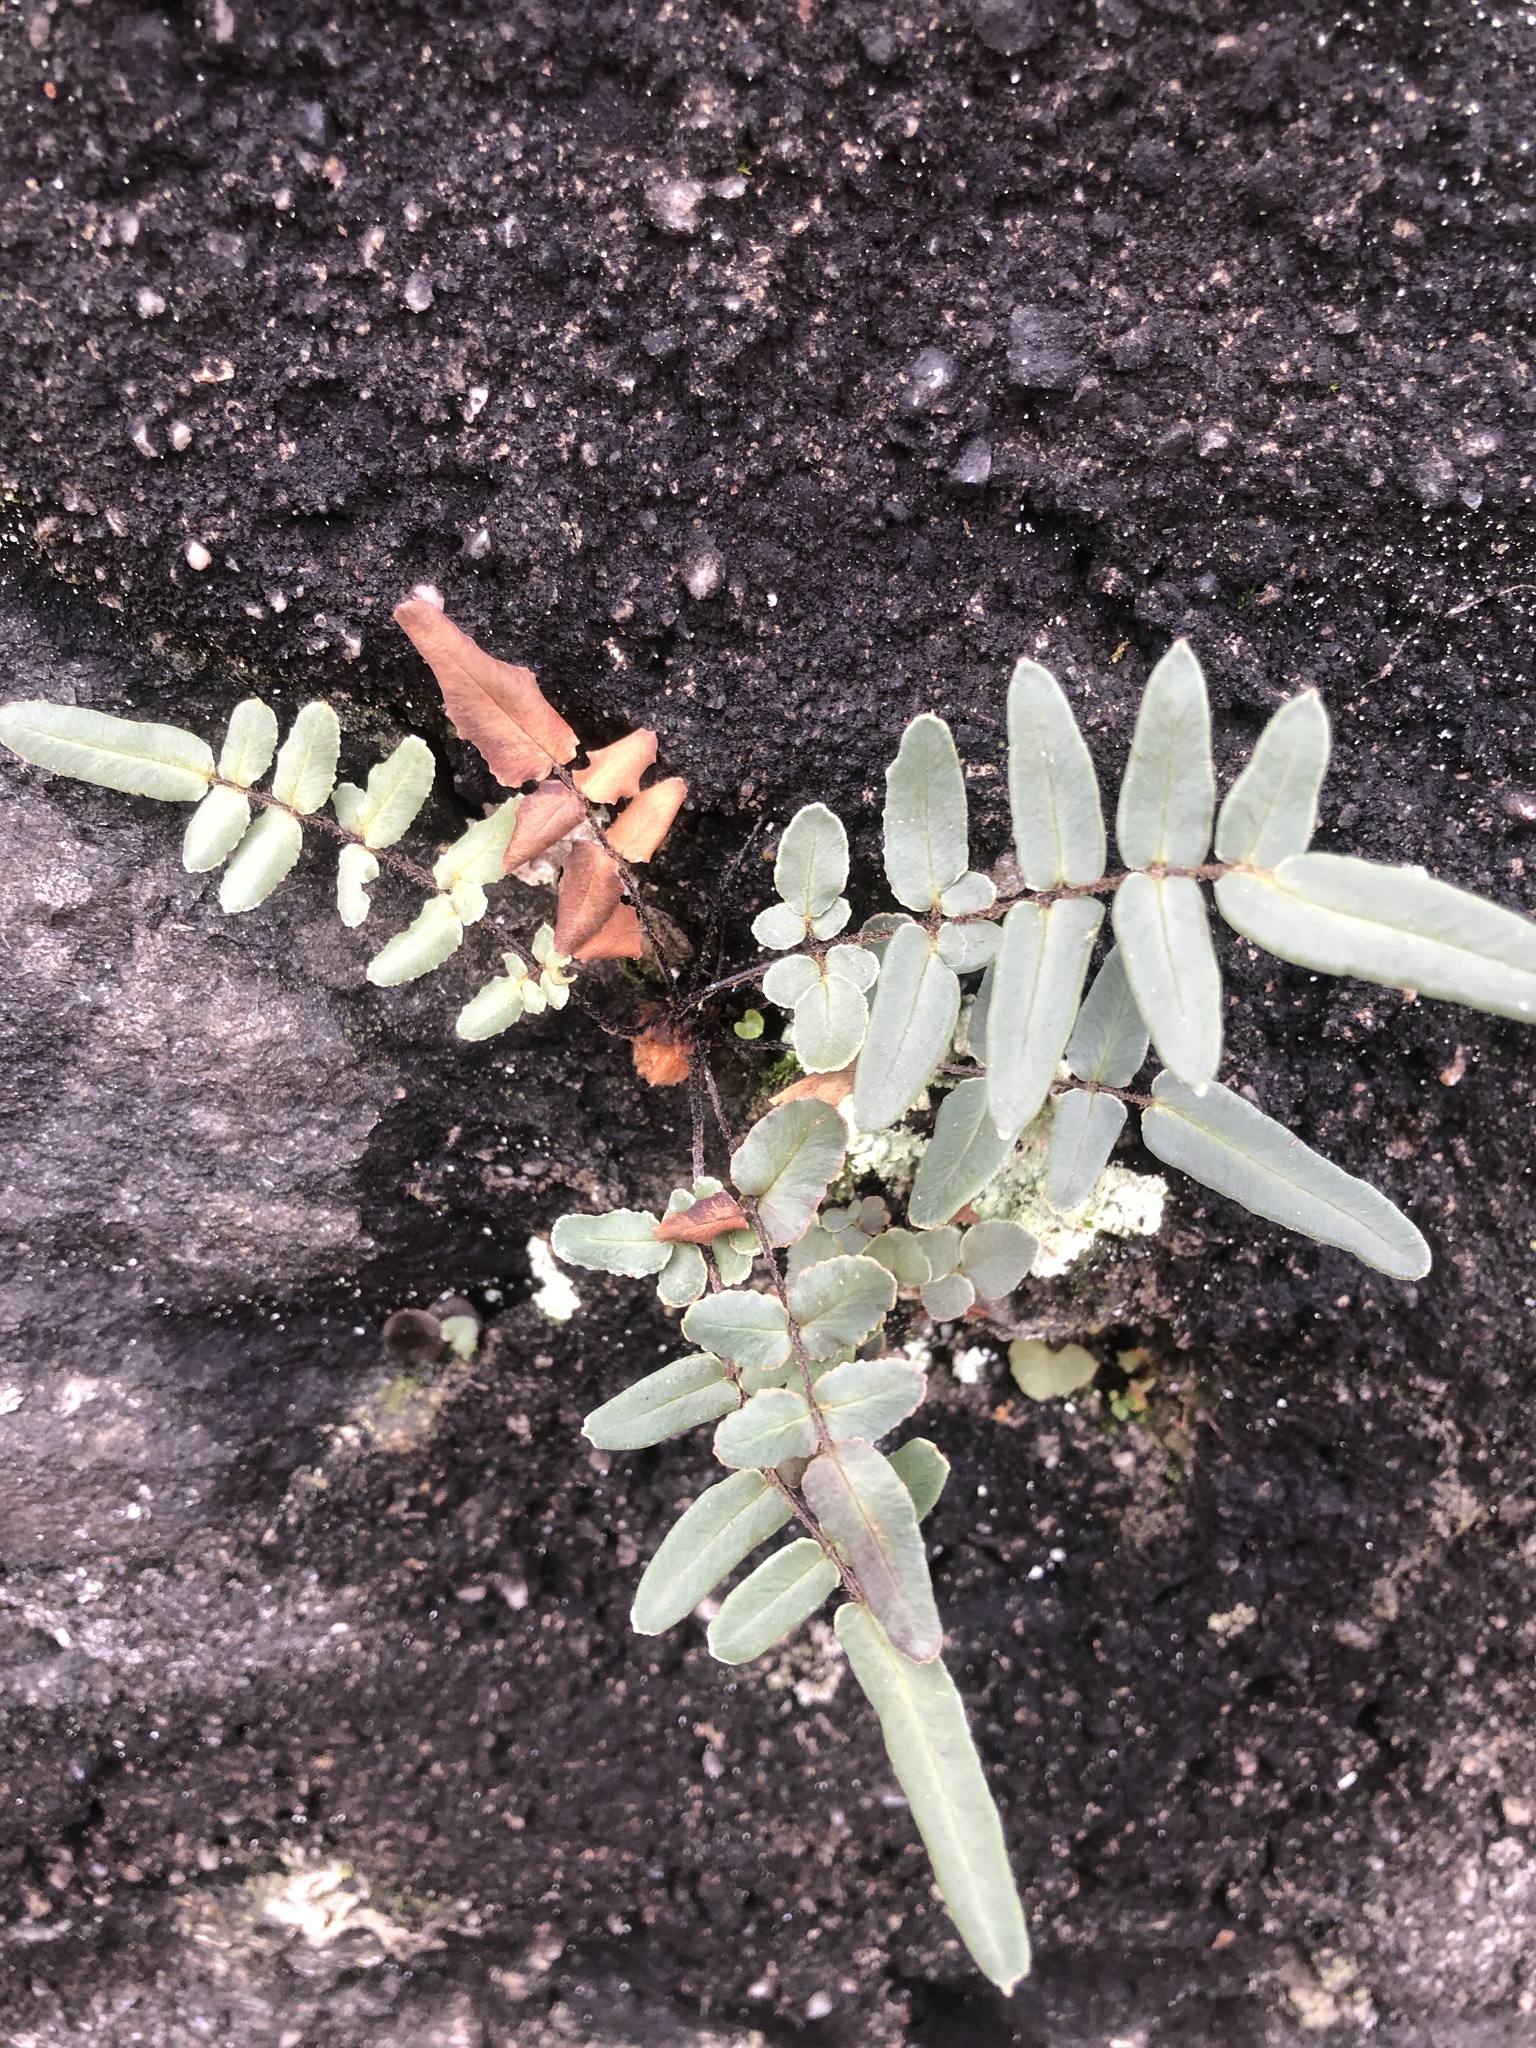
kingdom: Plantae
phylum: Tracheophyta
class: Polypodiopsida
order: Polypodiales
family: Pteridaceae
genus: Pellaea
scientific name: Pellaea atropurpurea
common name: Hairy cliffbrake
